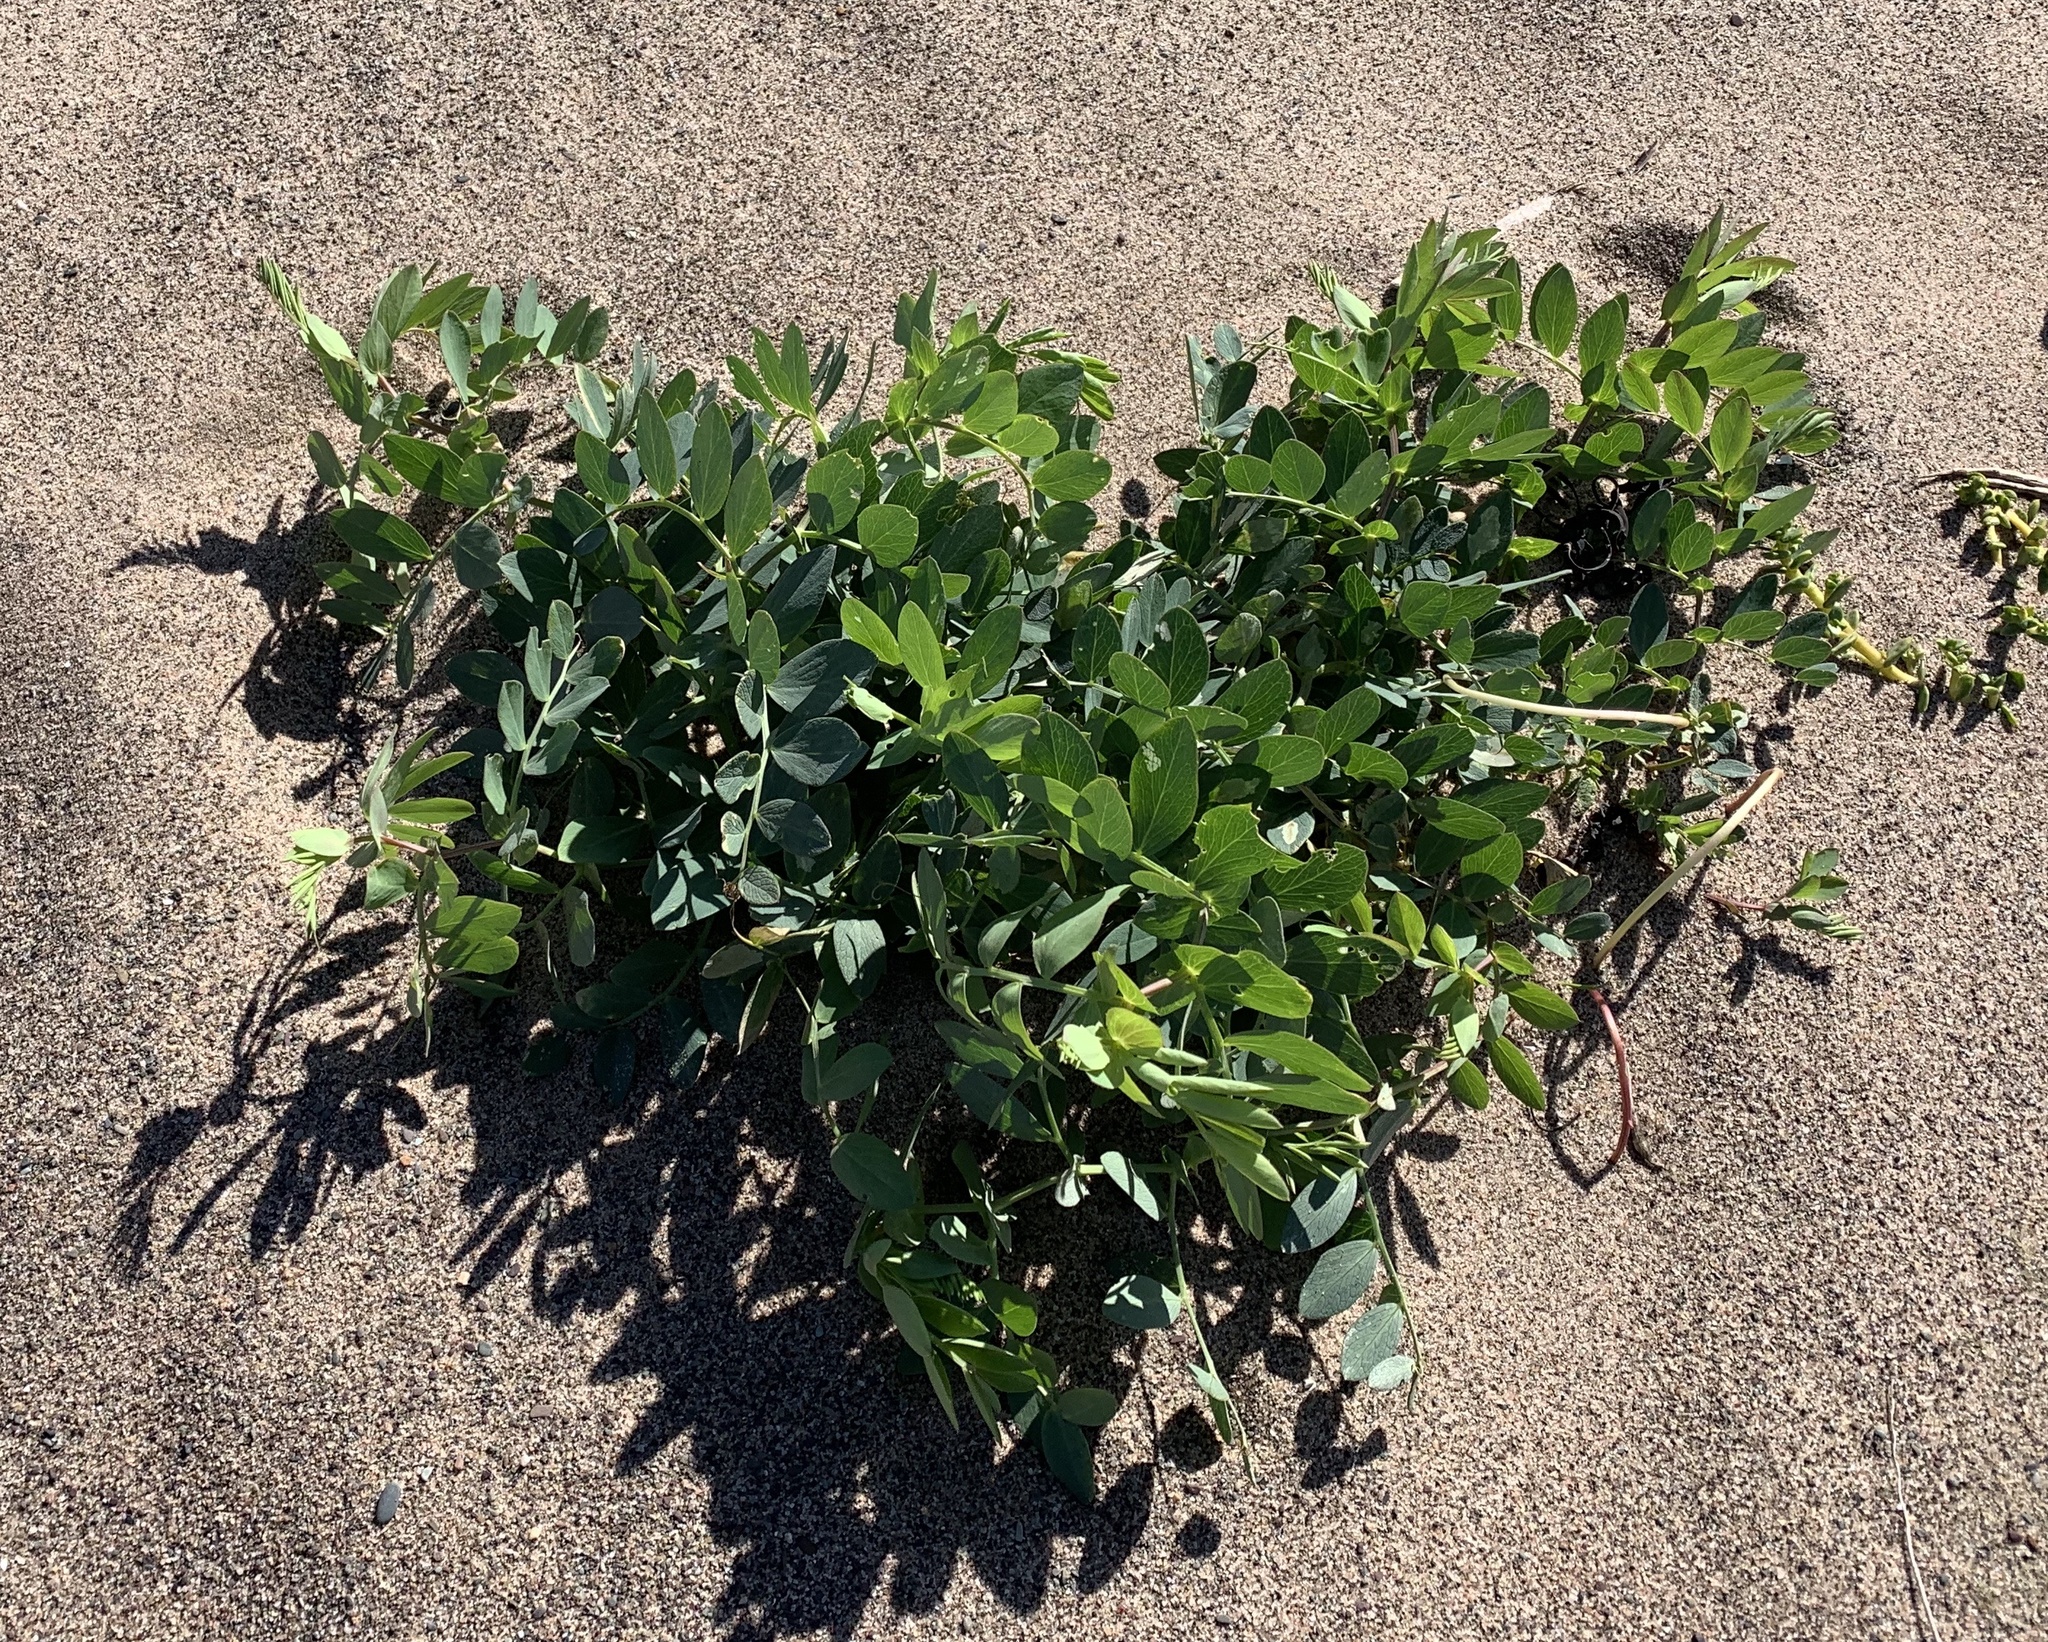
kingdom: Plantae
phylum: Tracheophyta
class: Magnoliopsida
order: Fabales
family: Fabaceae
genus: Lathyrus
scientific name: Lathyrus japonicus
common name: Sea pea
